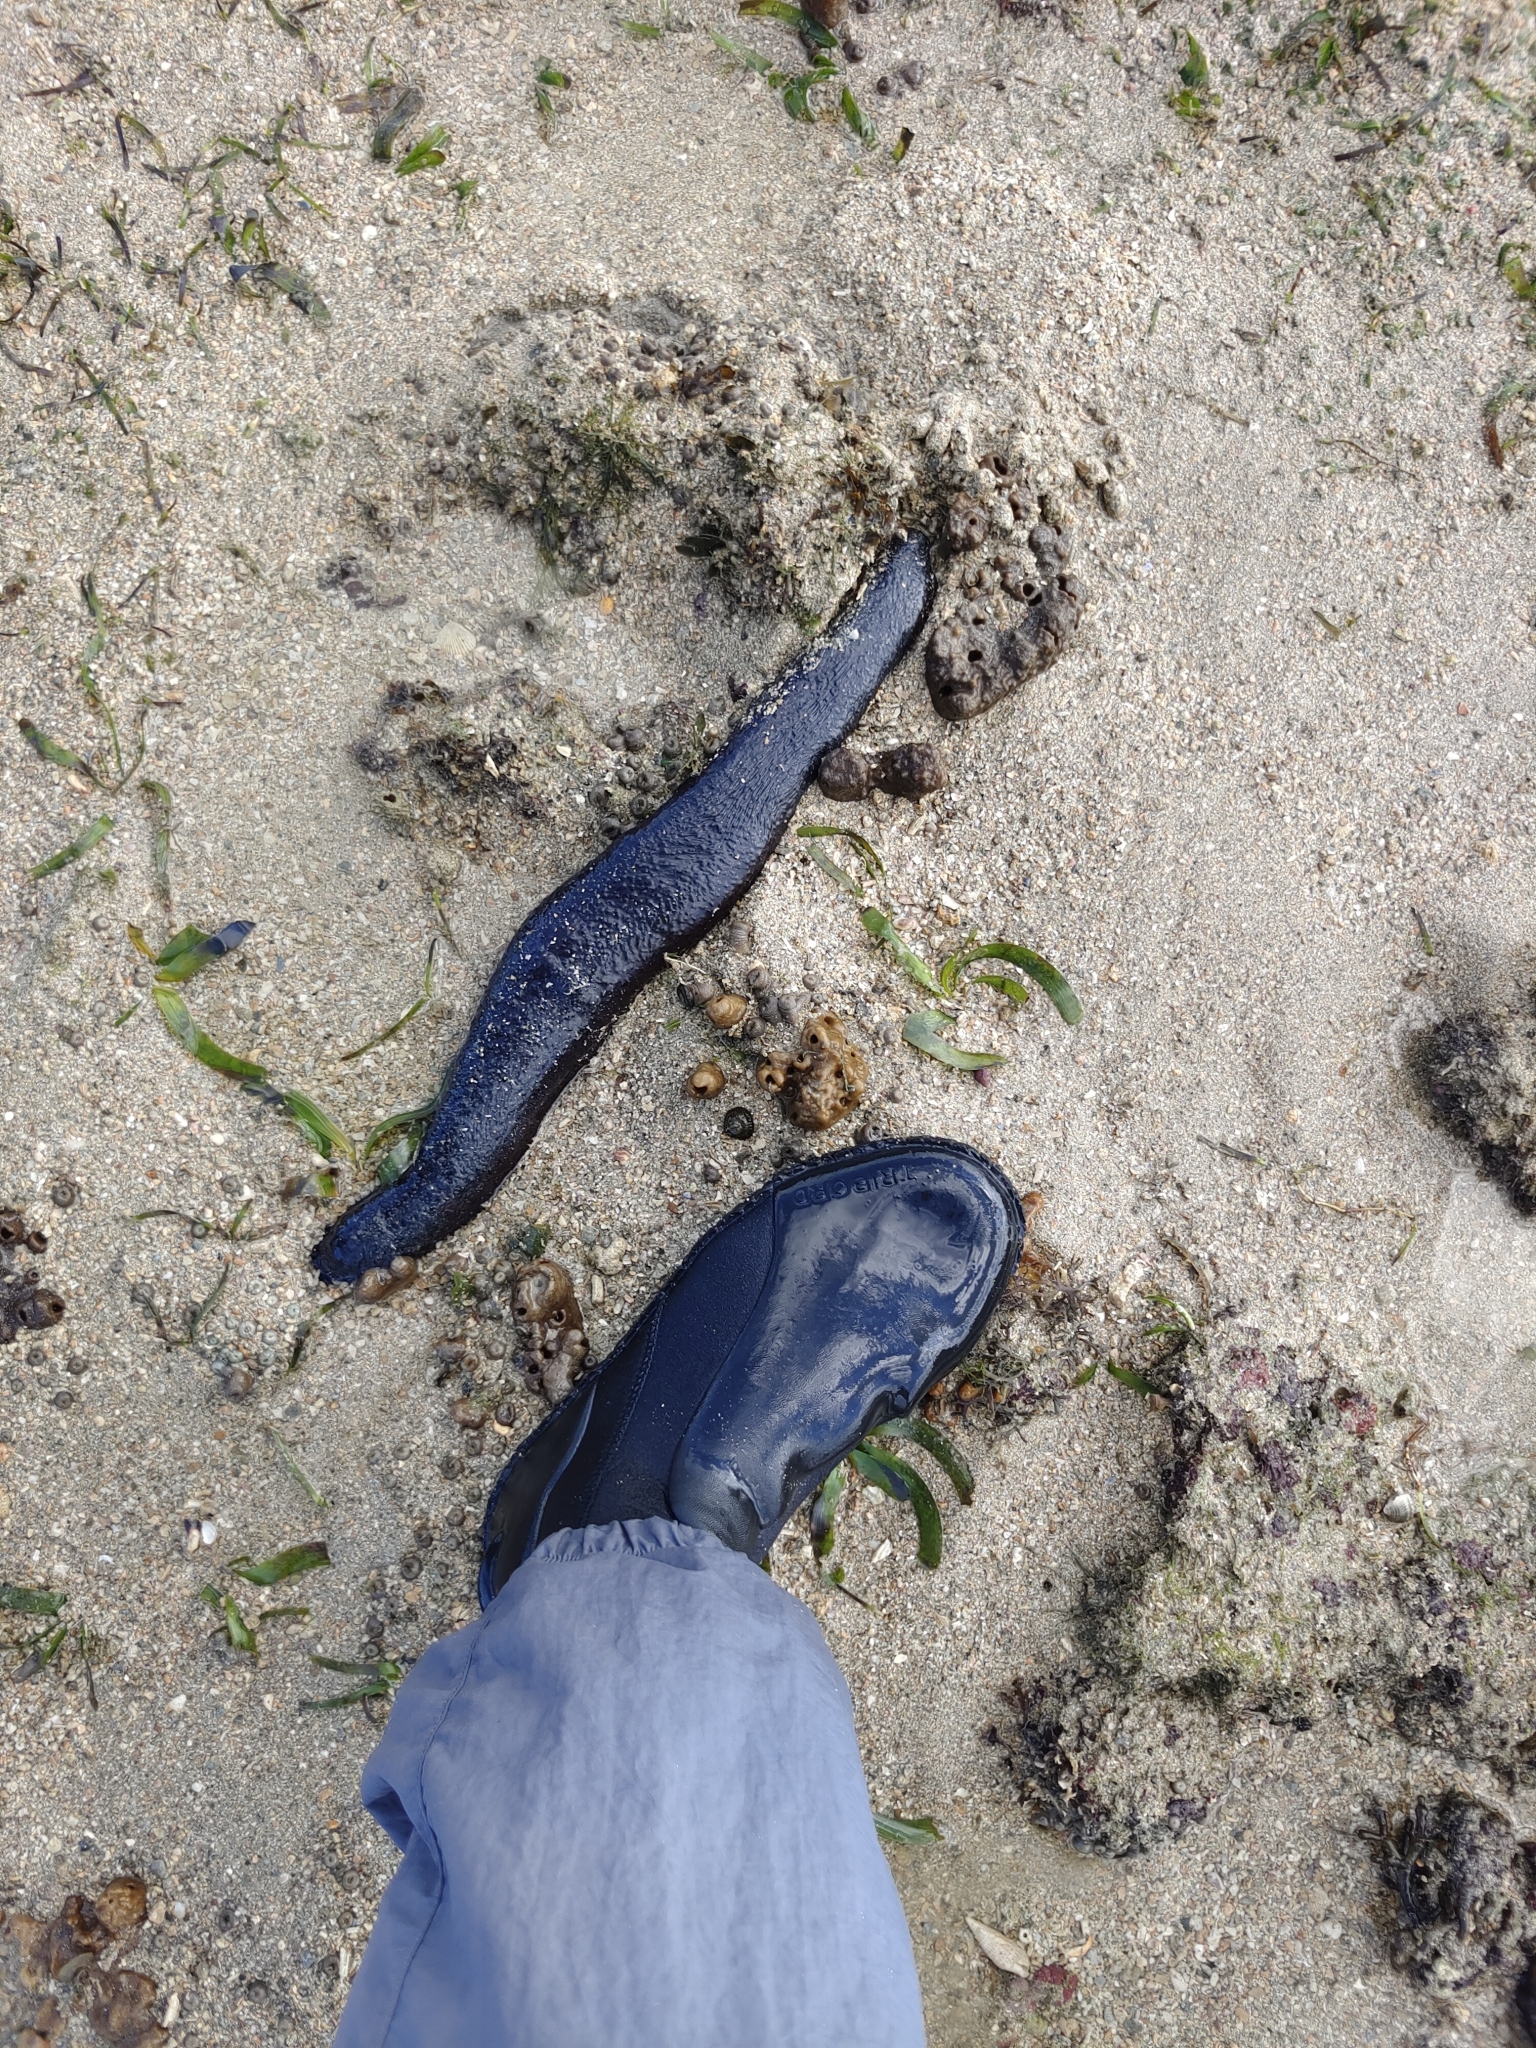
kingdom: Animalia
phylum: Echinodermata
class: Holothuroidea
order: Holothuriida
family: Holothuriidae
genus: Holothuria
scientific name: Holothuria leucospilota
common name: White thread fish
